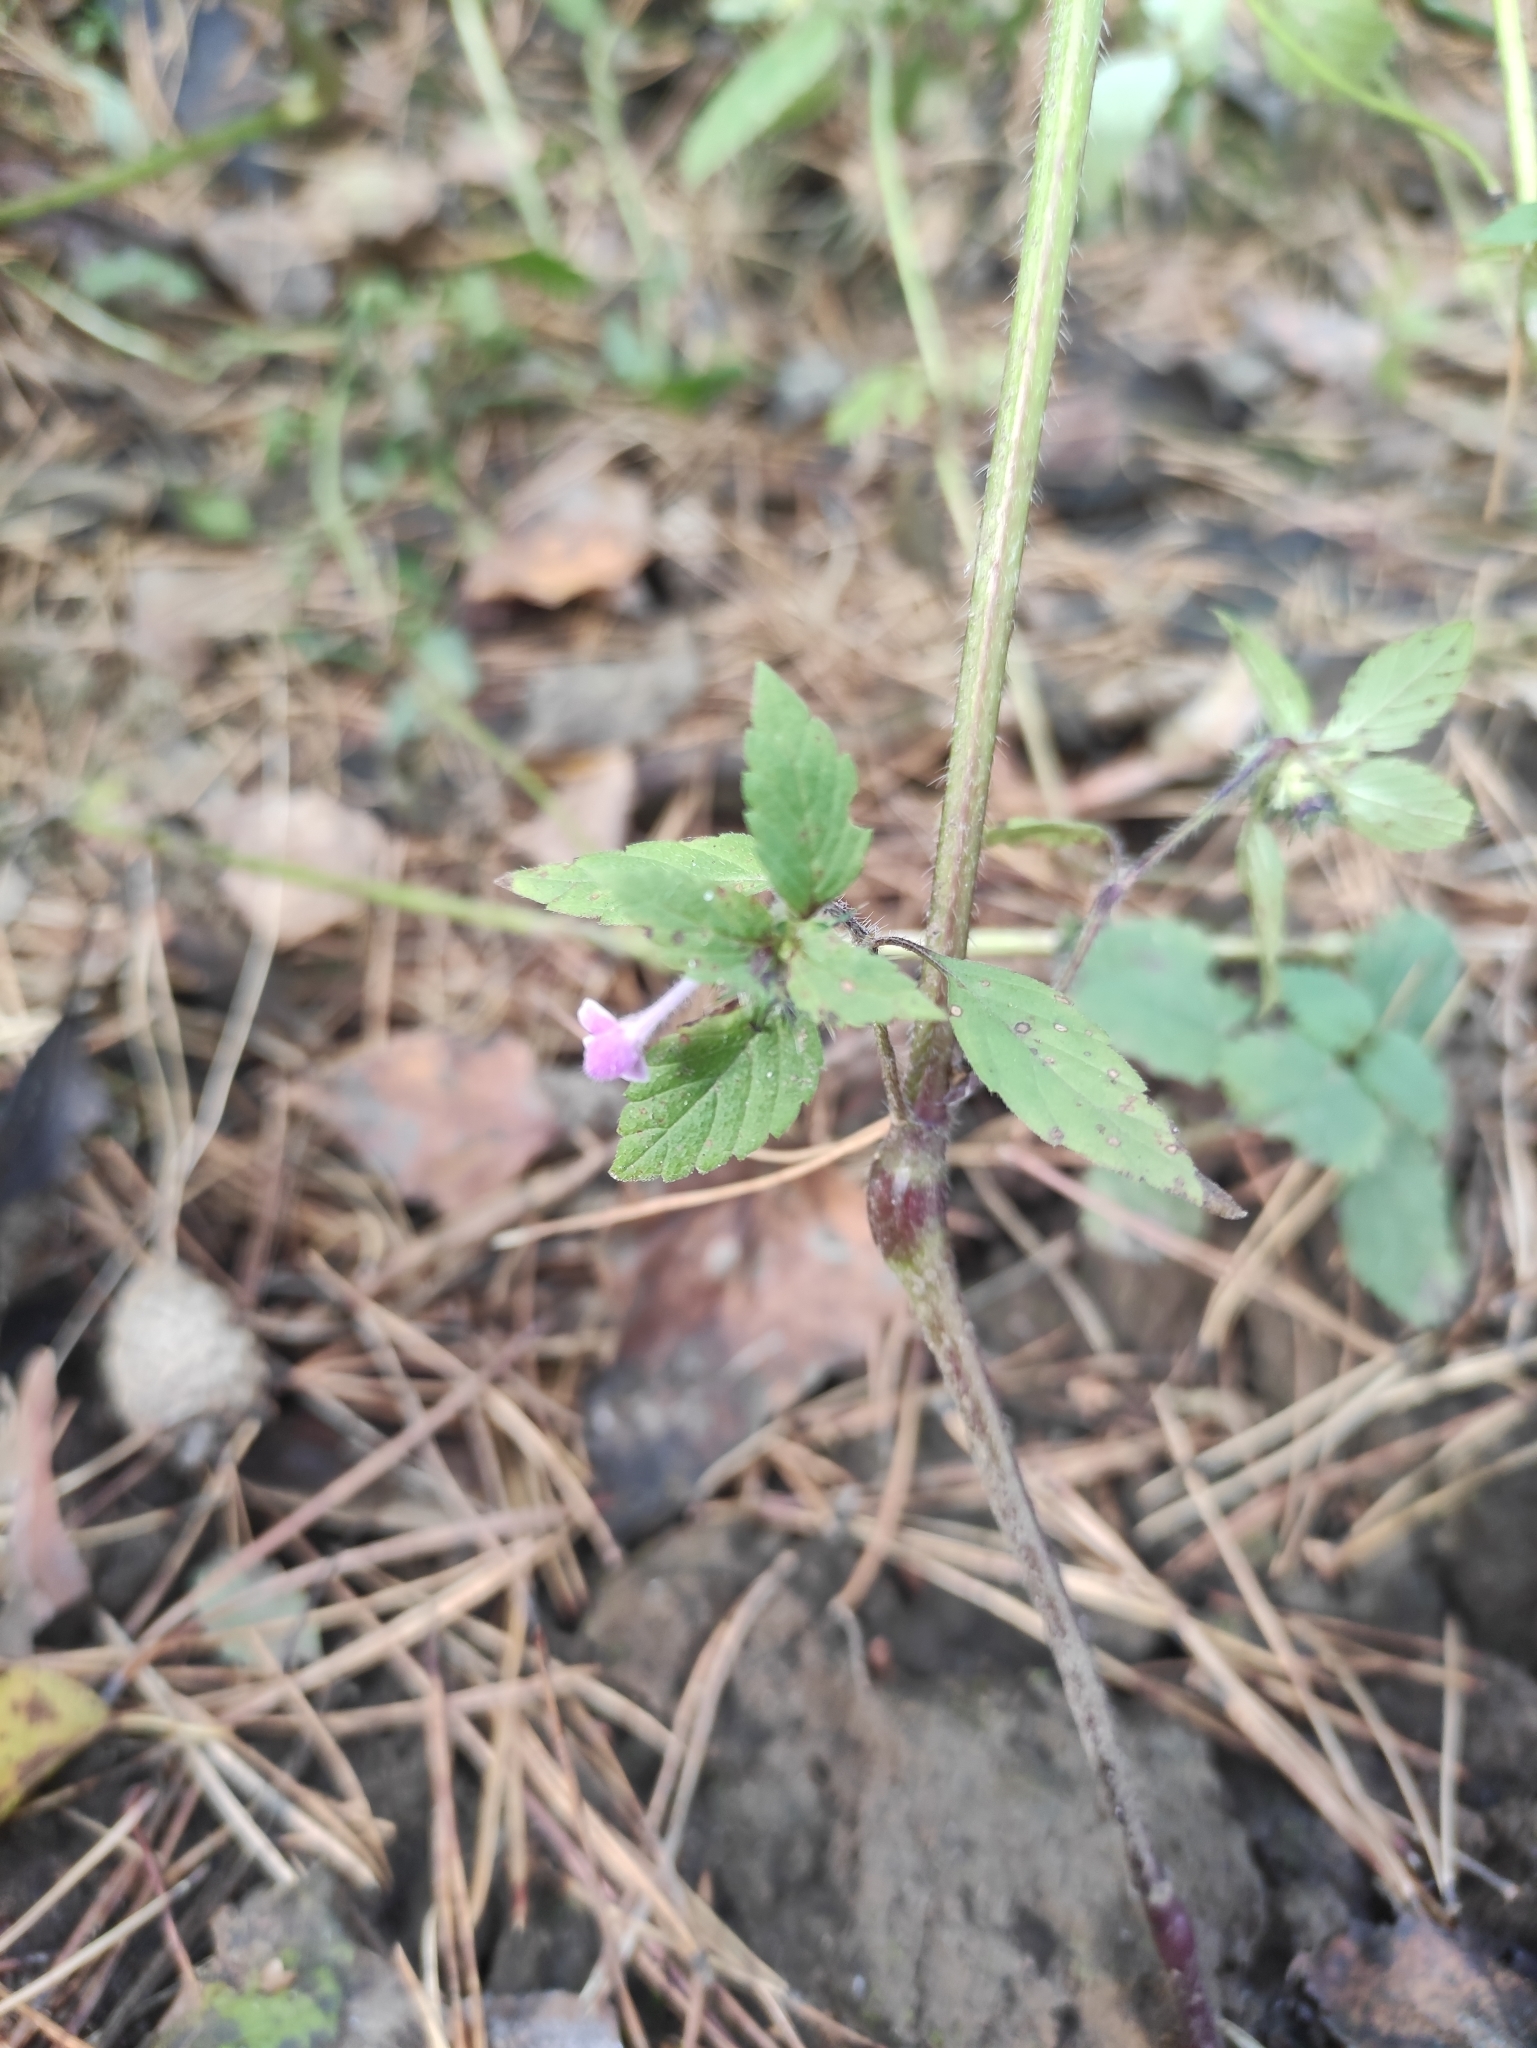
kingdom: Plantae
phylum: Tracheophyta
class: Magnoliopsida
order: Lamiales
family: Lamiaceae
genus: Galeopsis
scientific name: Galeopsis bifida
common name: Bifid hemp-nettle
